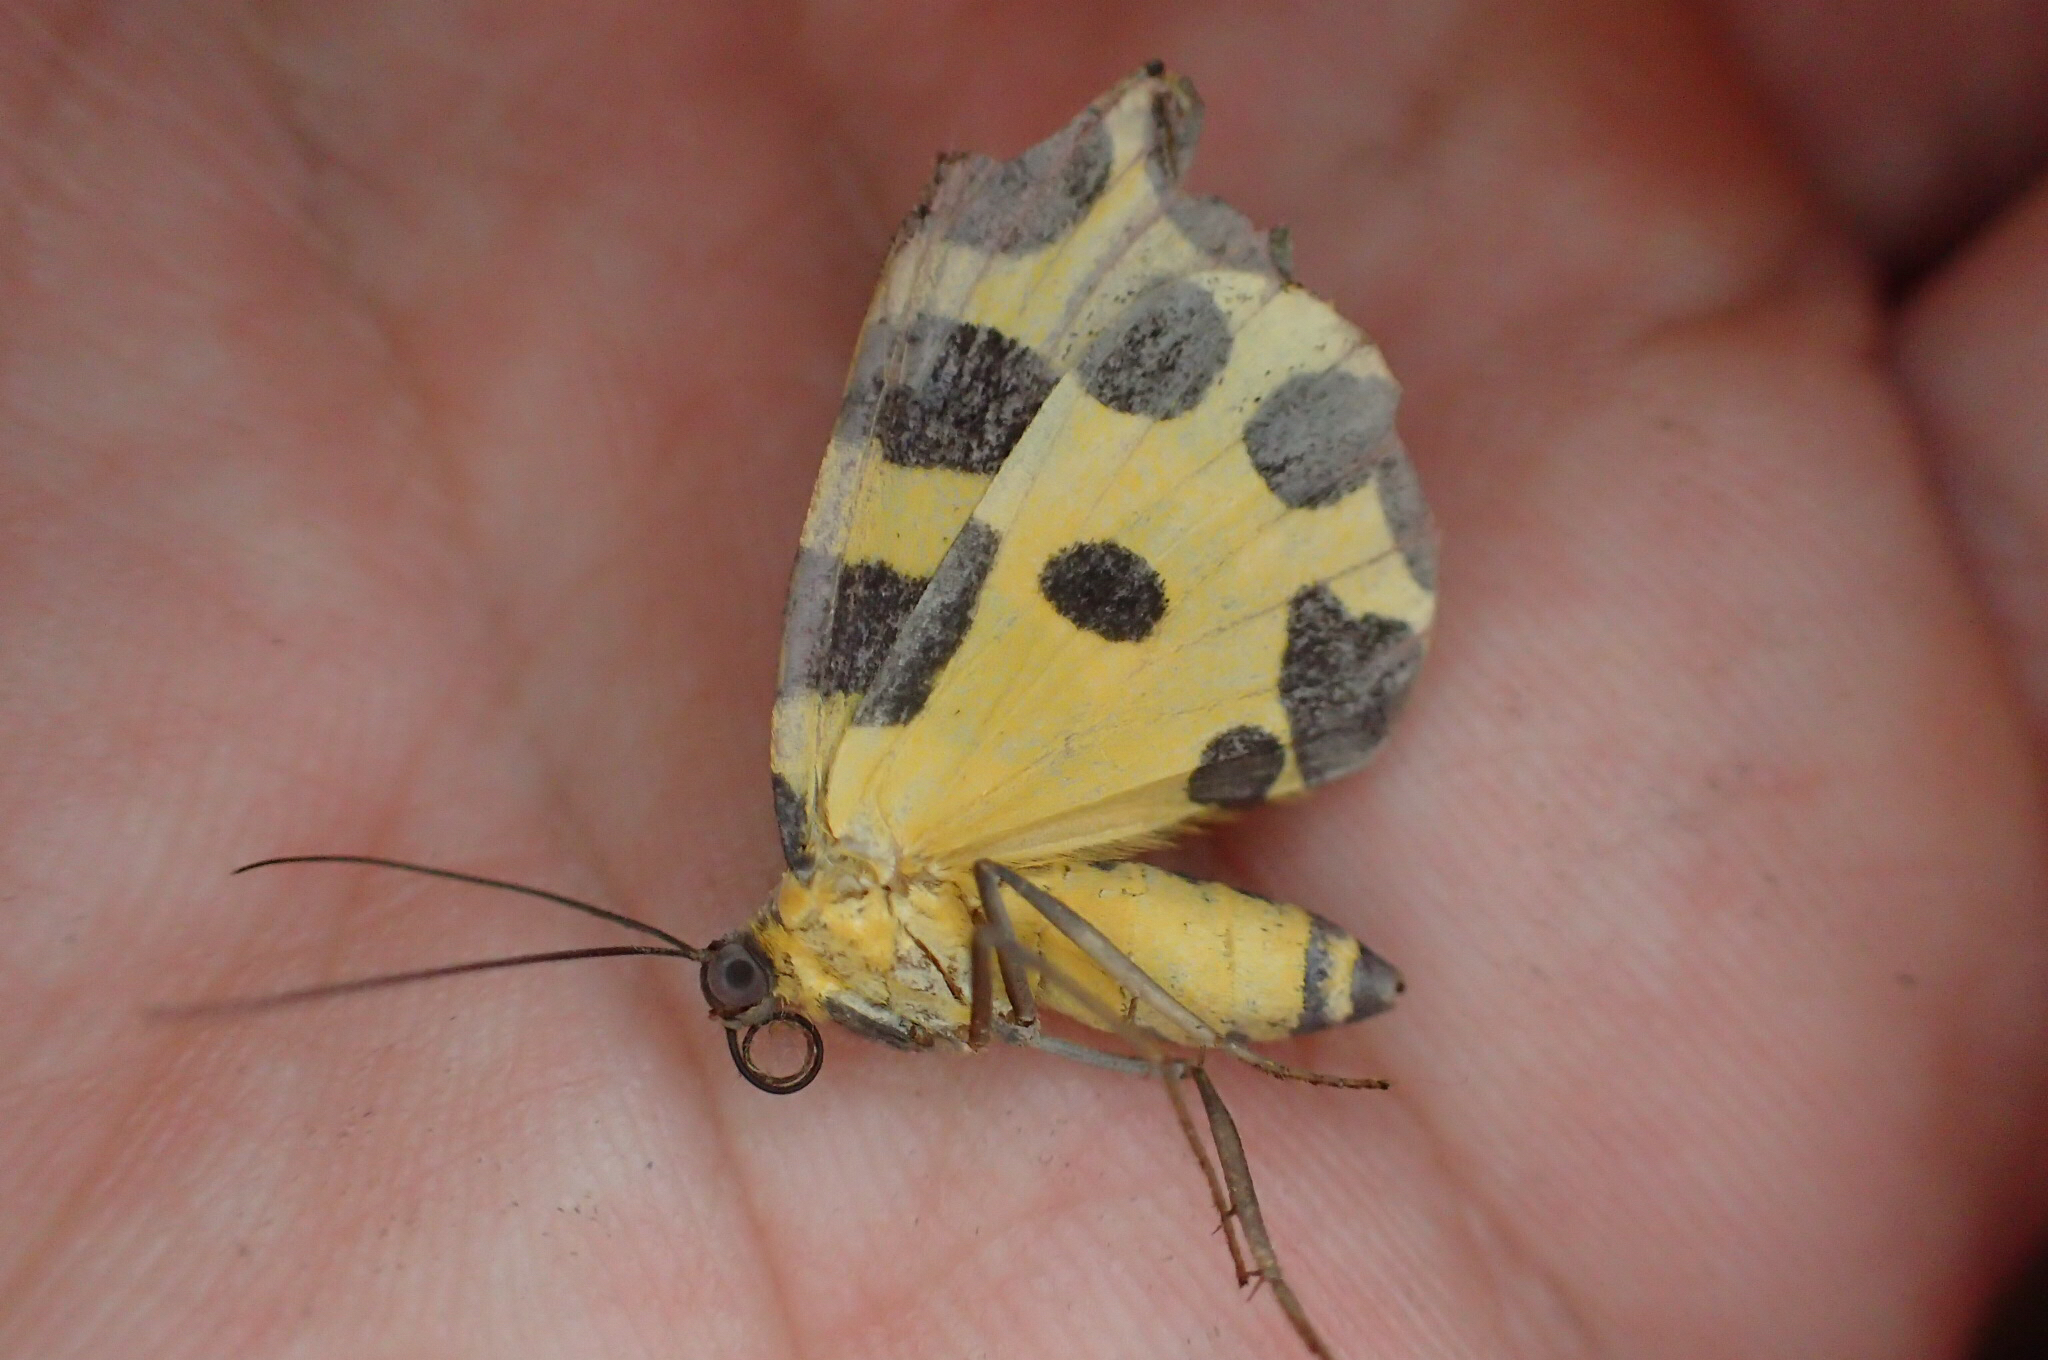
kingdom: Animalia
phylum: Arthropoda
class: Insecta
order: Lepidoptera
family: Geometridae
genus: Pantherodes
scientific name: Pantherodes unciaria
